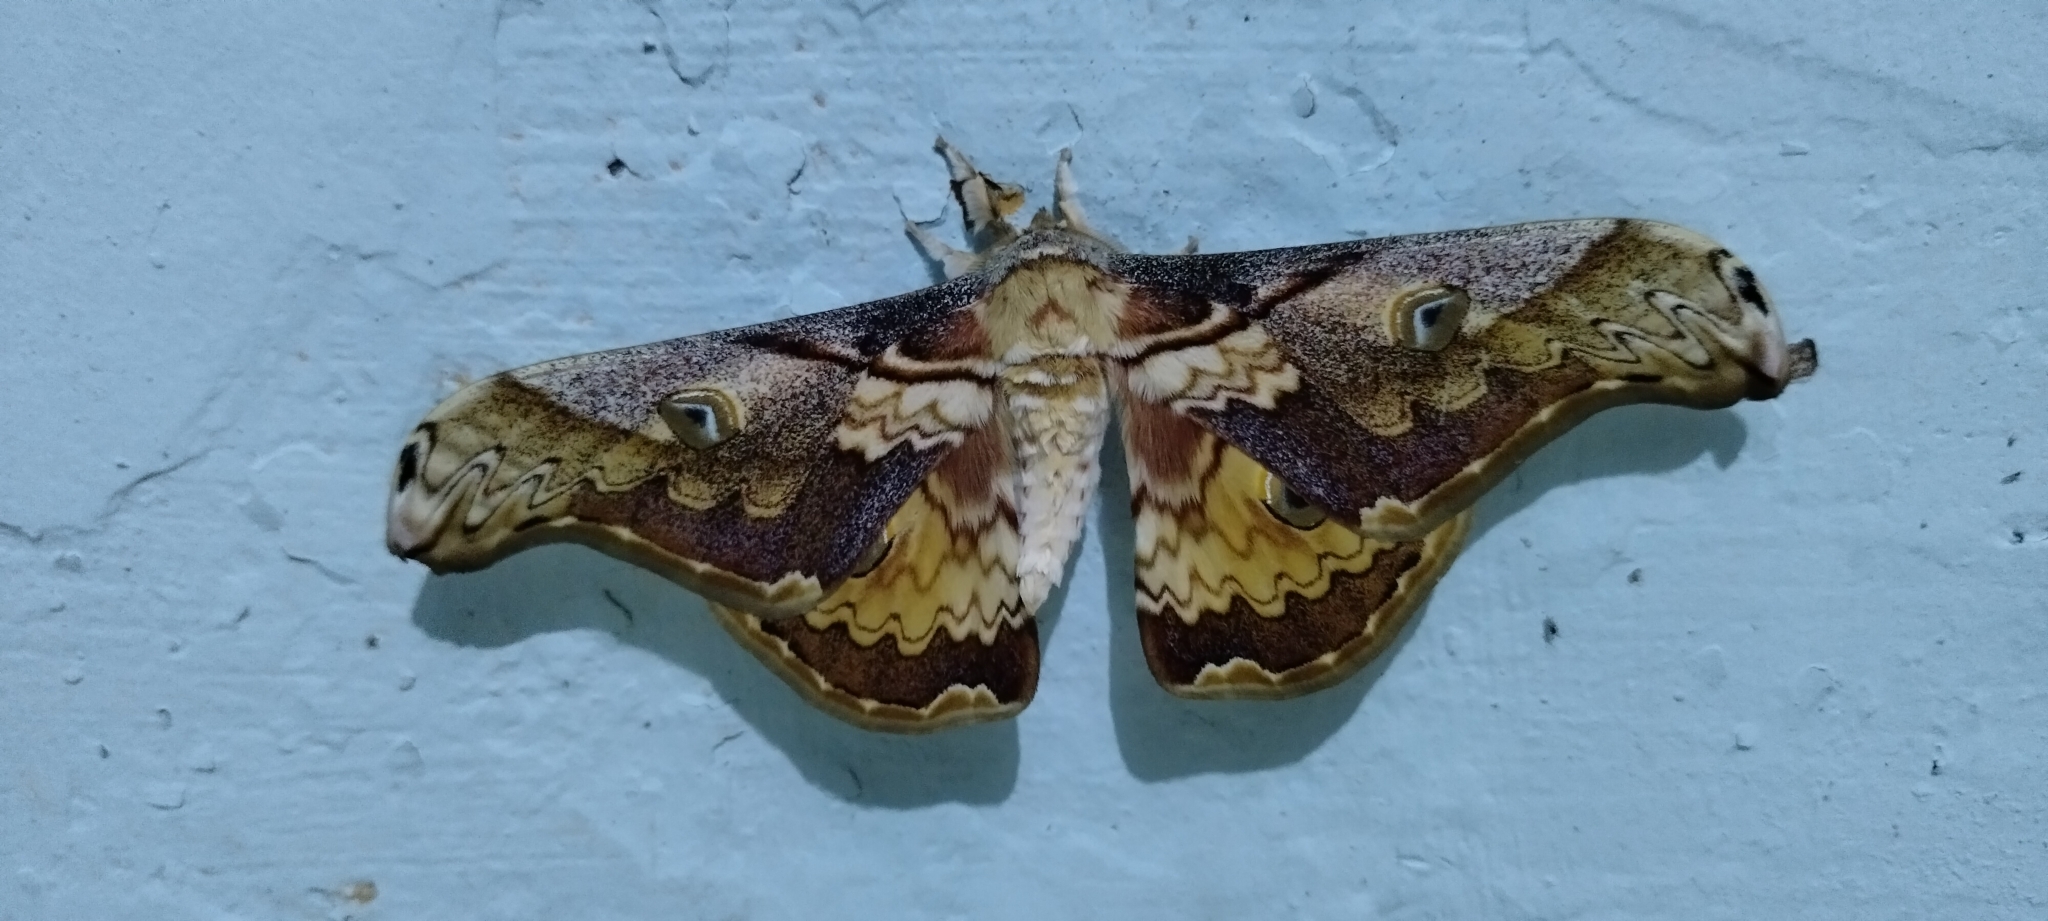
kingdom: Animalia
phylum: Arthropoda
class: Insecta
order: Lepidoptera
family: Saturniidae
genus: Rinaca
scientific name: Rinaca thibeta
